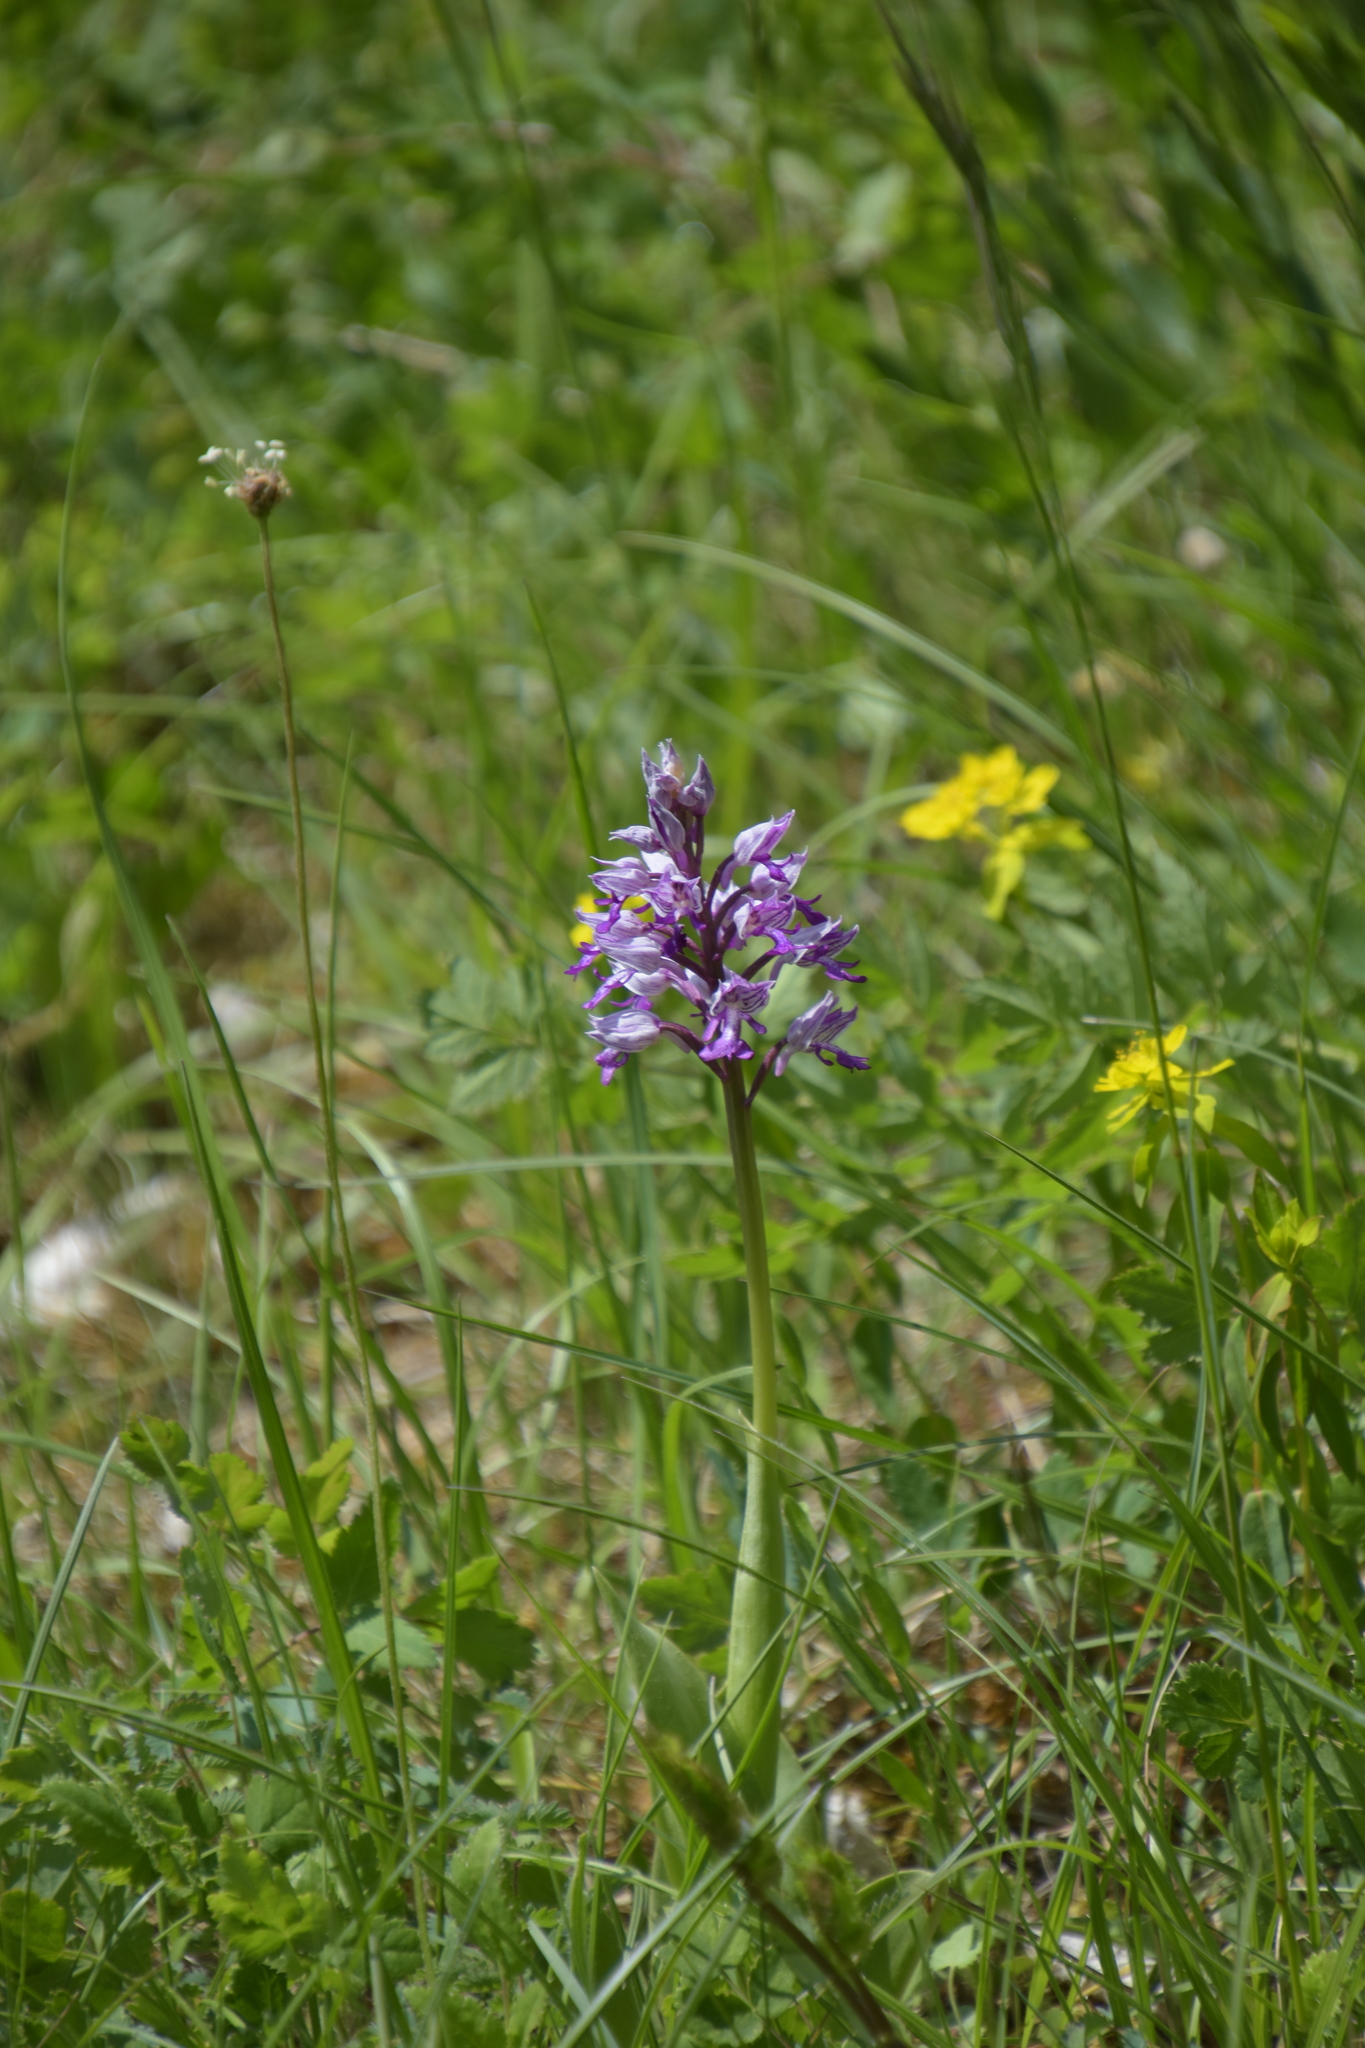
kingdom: Plantae
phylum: Tracheophyta
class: Liliopsida
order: Asparagales
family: Orchidaceae
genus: Orchis
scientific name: Orchis militaris
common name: Military orchid
